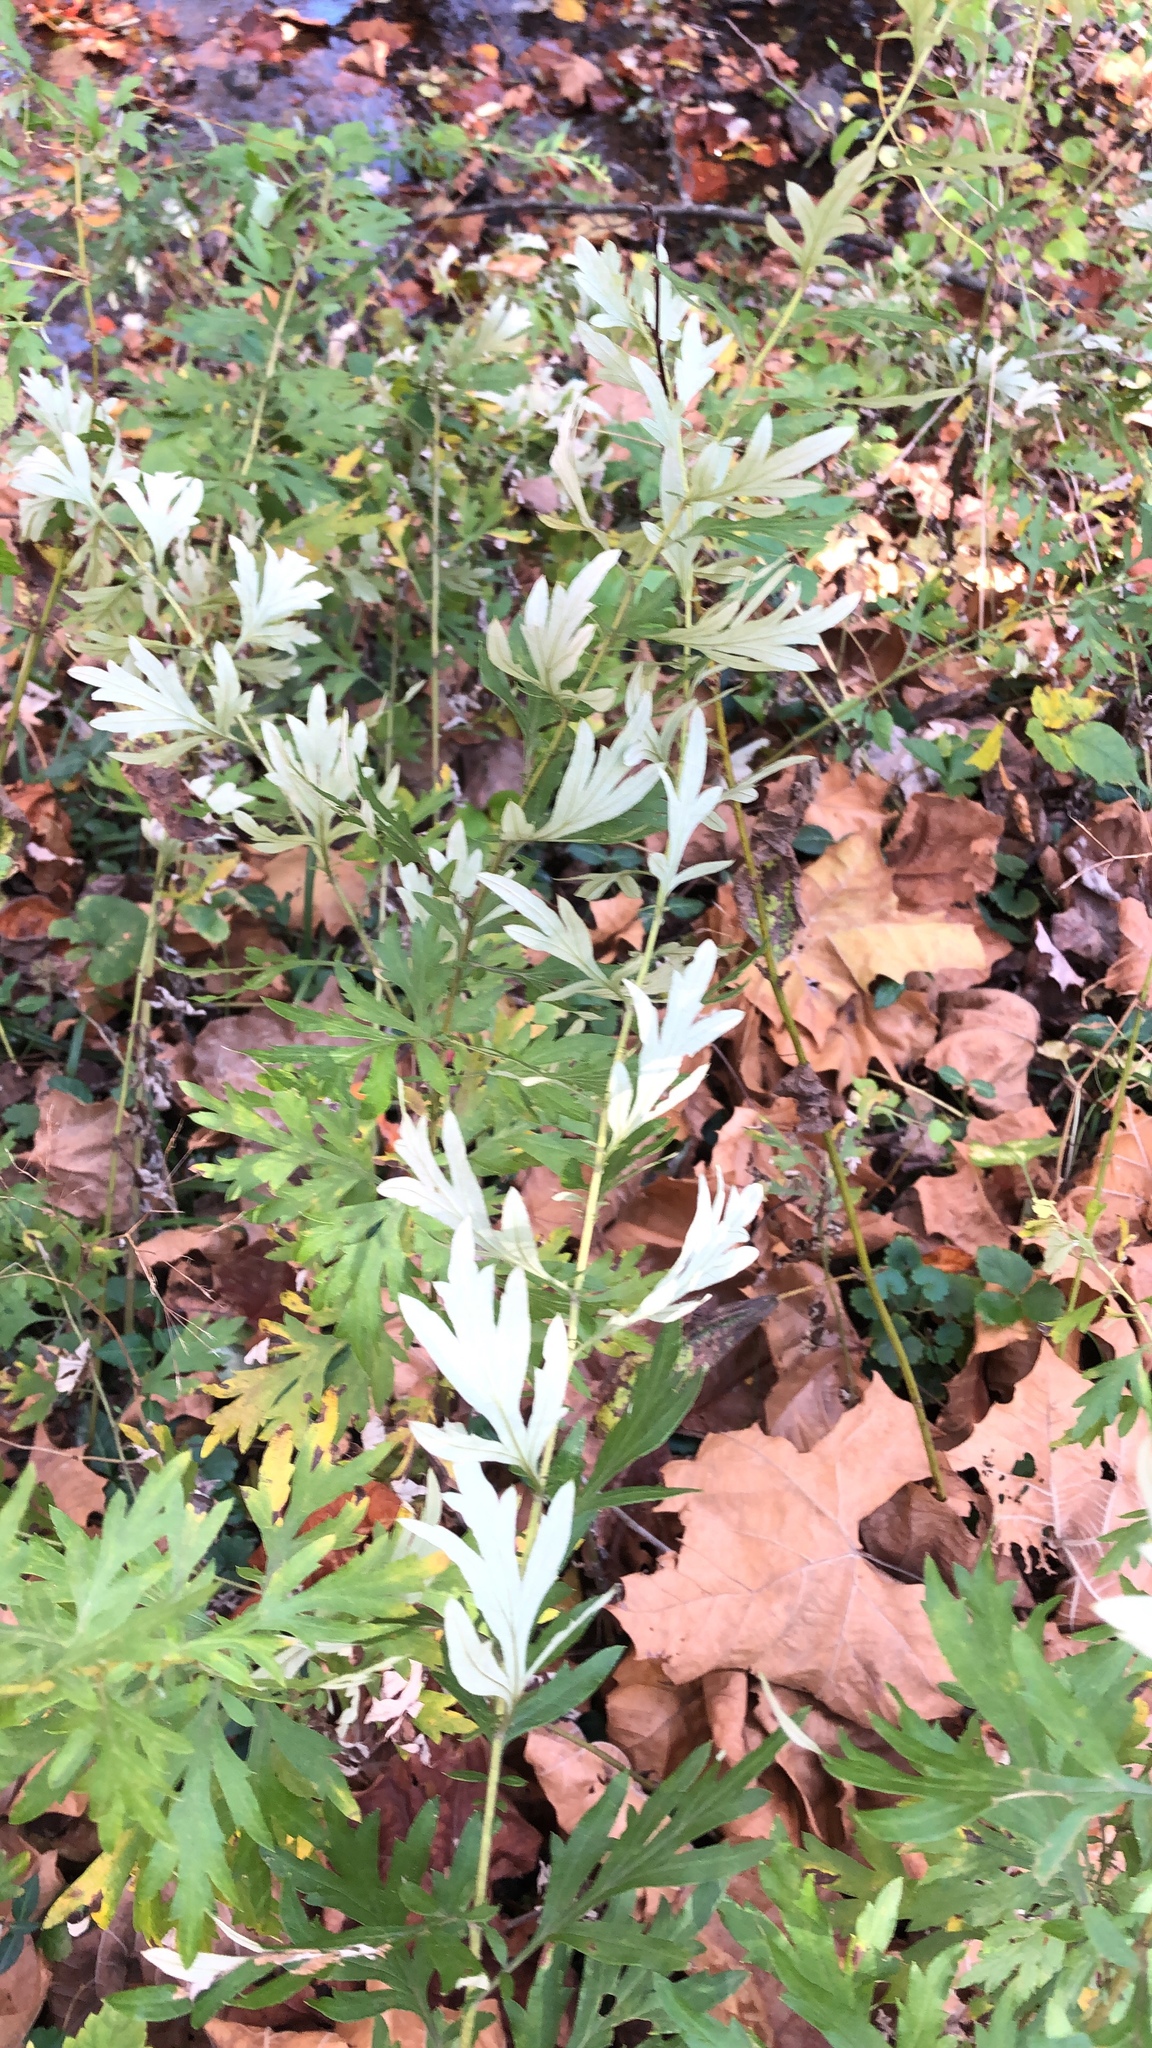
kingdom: Plantae
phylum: Tracheophyta
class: Magnoliopsida
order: Asterales
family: Asteraceae
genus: Artemisia
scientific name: Artemisia vulgaris
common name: Mugwort
